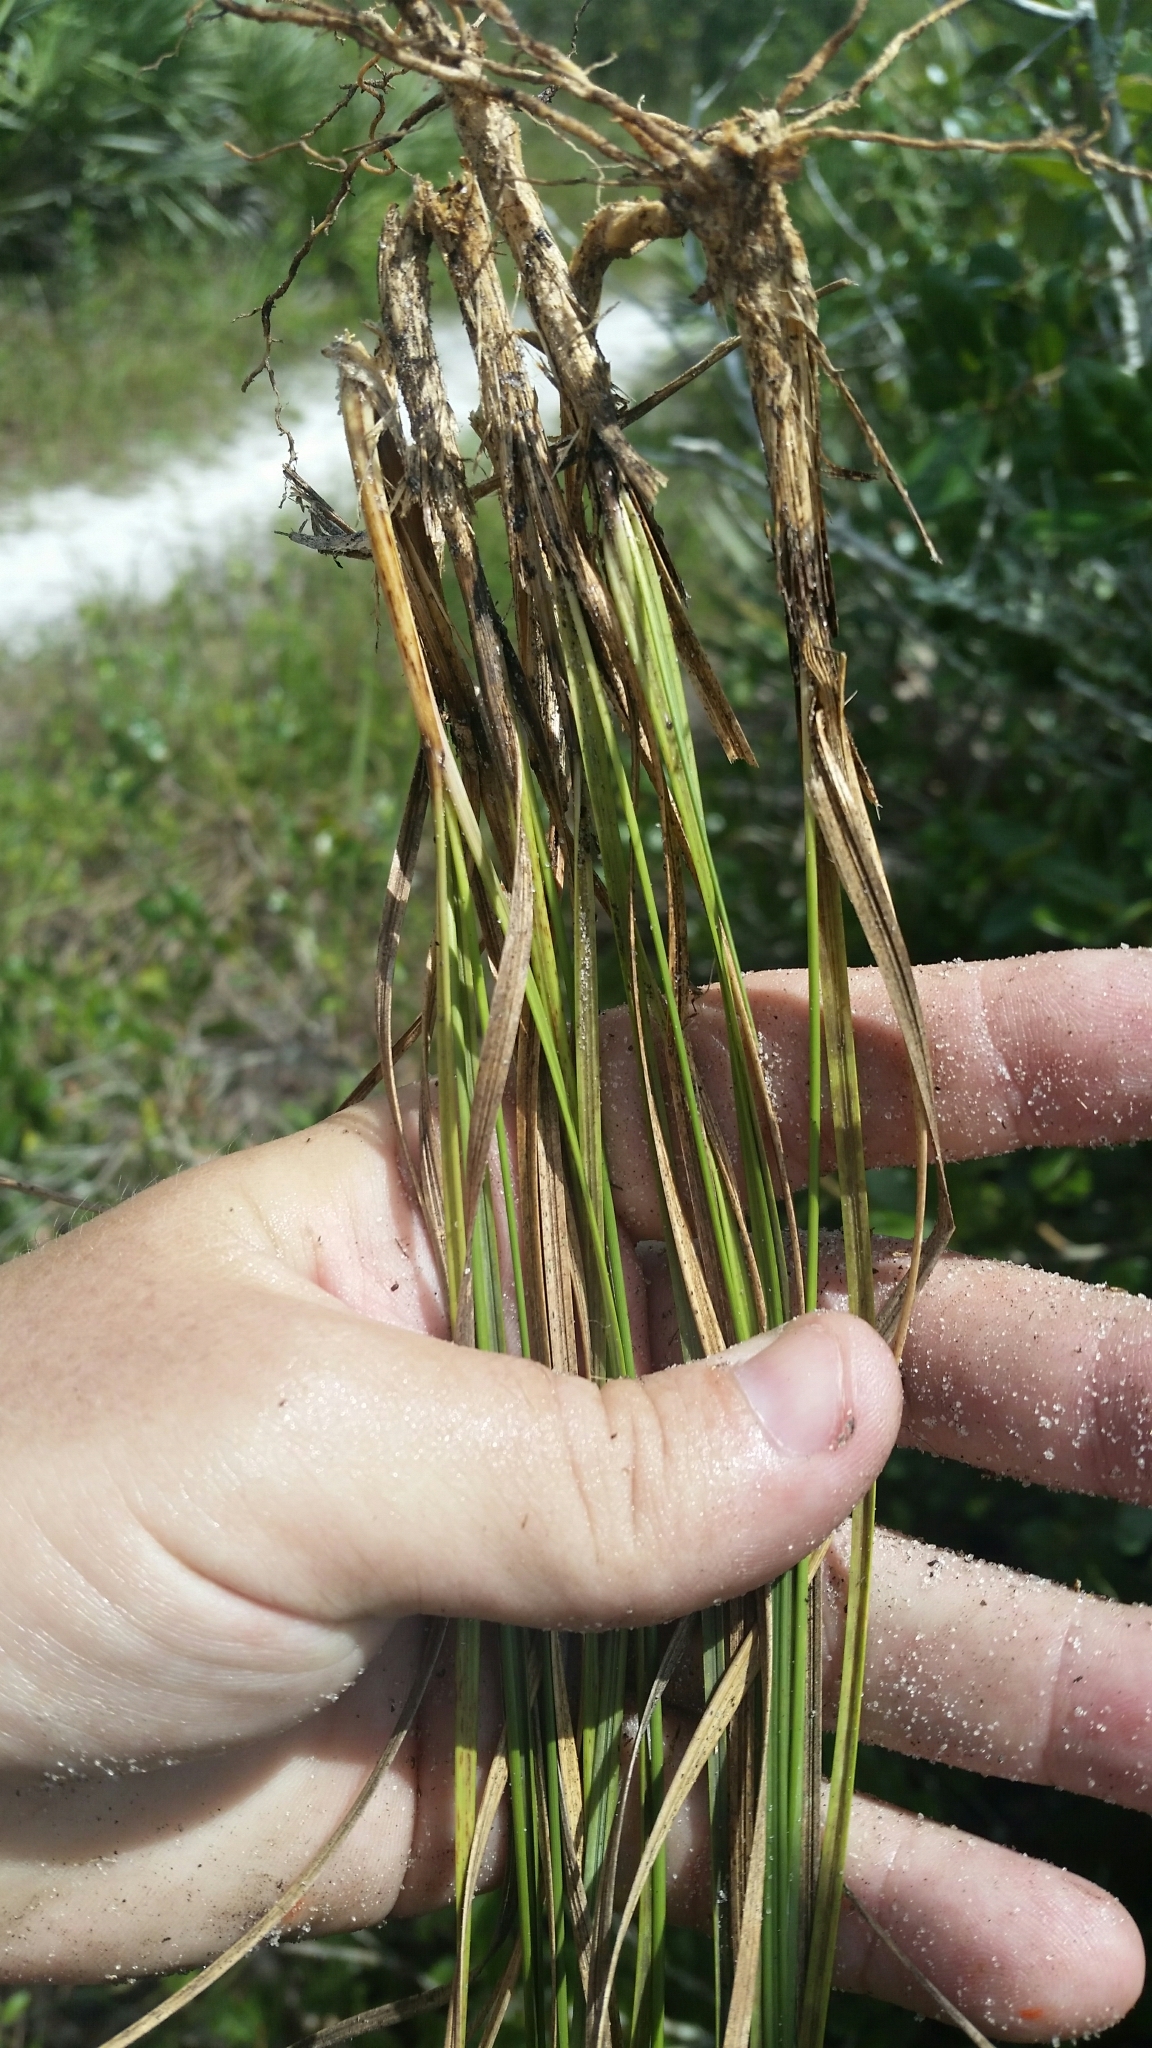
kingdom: Plantae
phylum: Tracheophyta
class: Liliopsida
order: Poales
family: Poaceae
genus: Aristida
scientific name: Aristida rhizomophora
